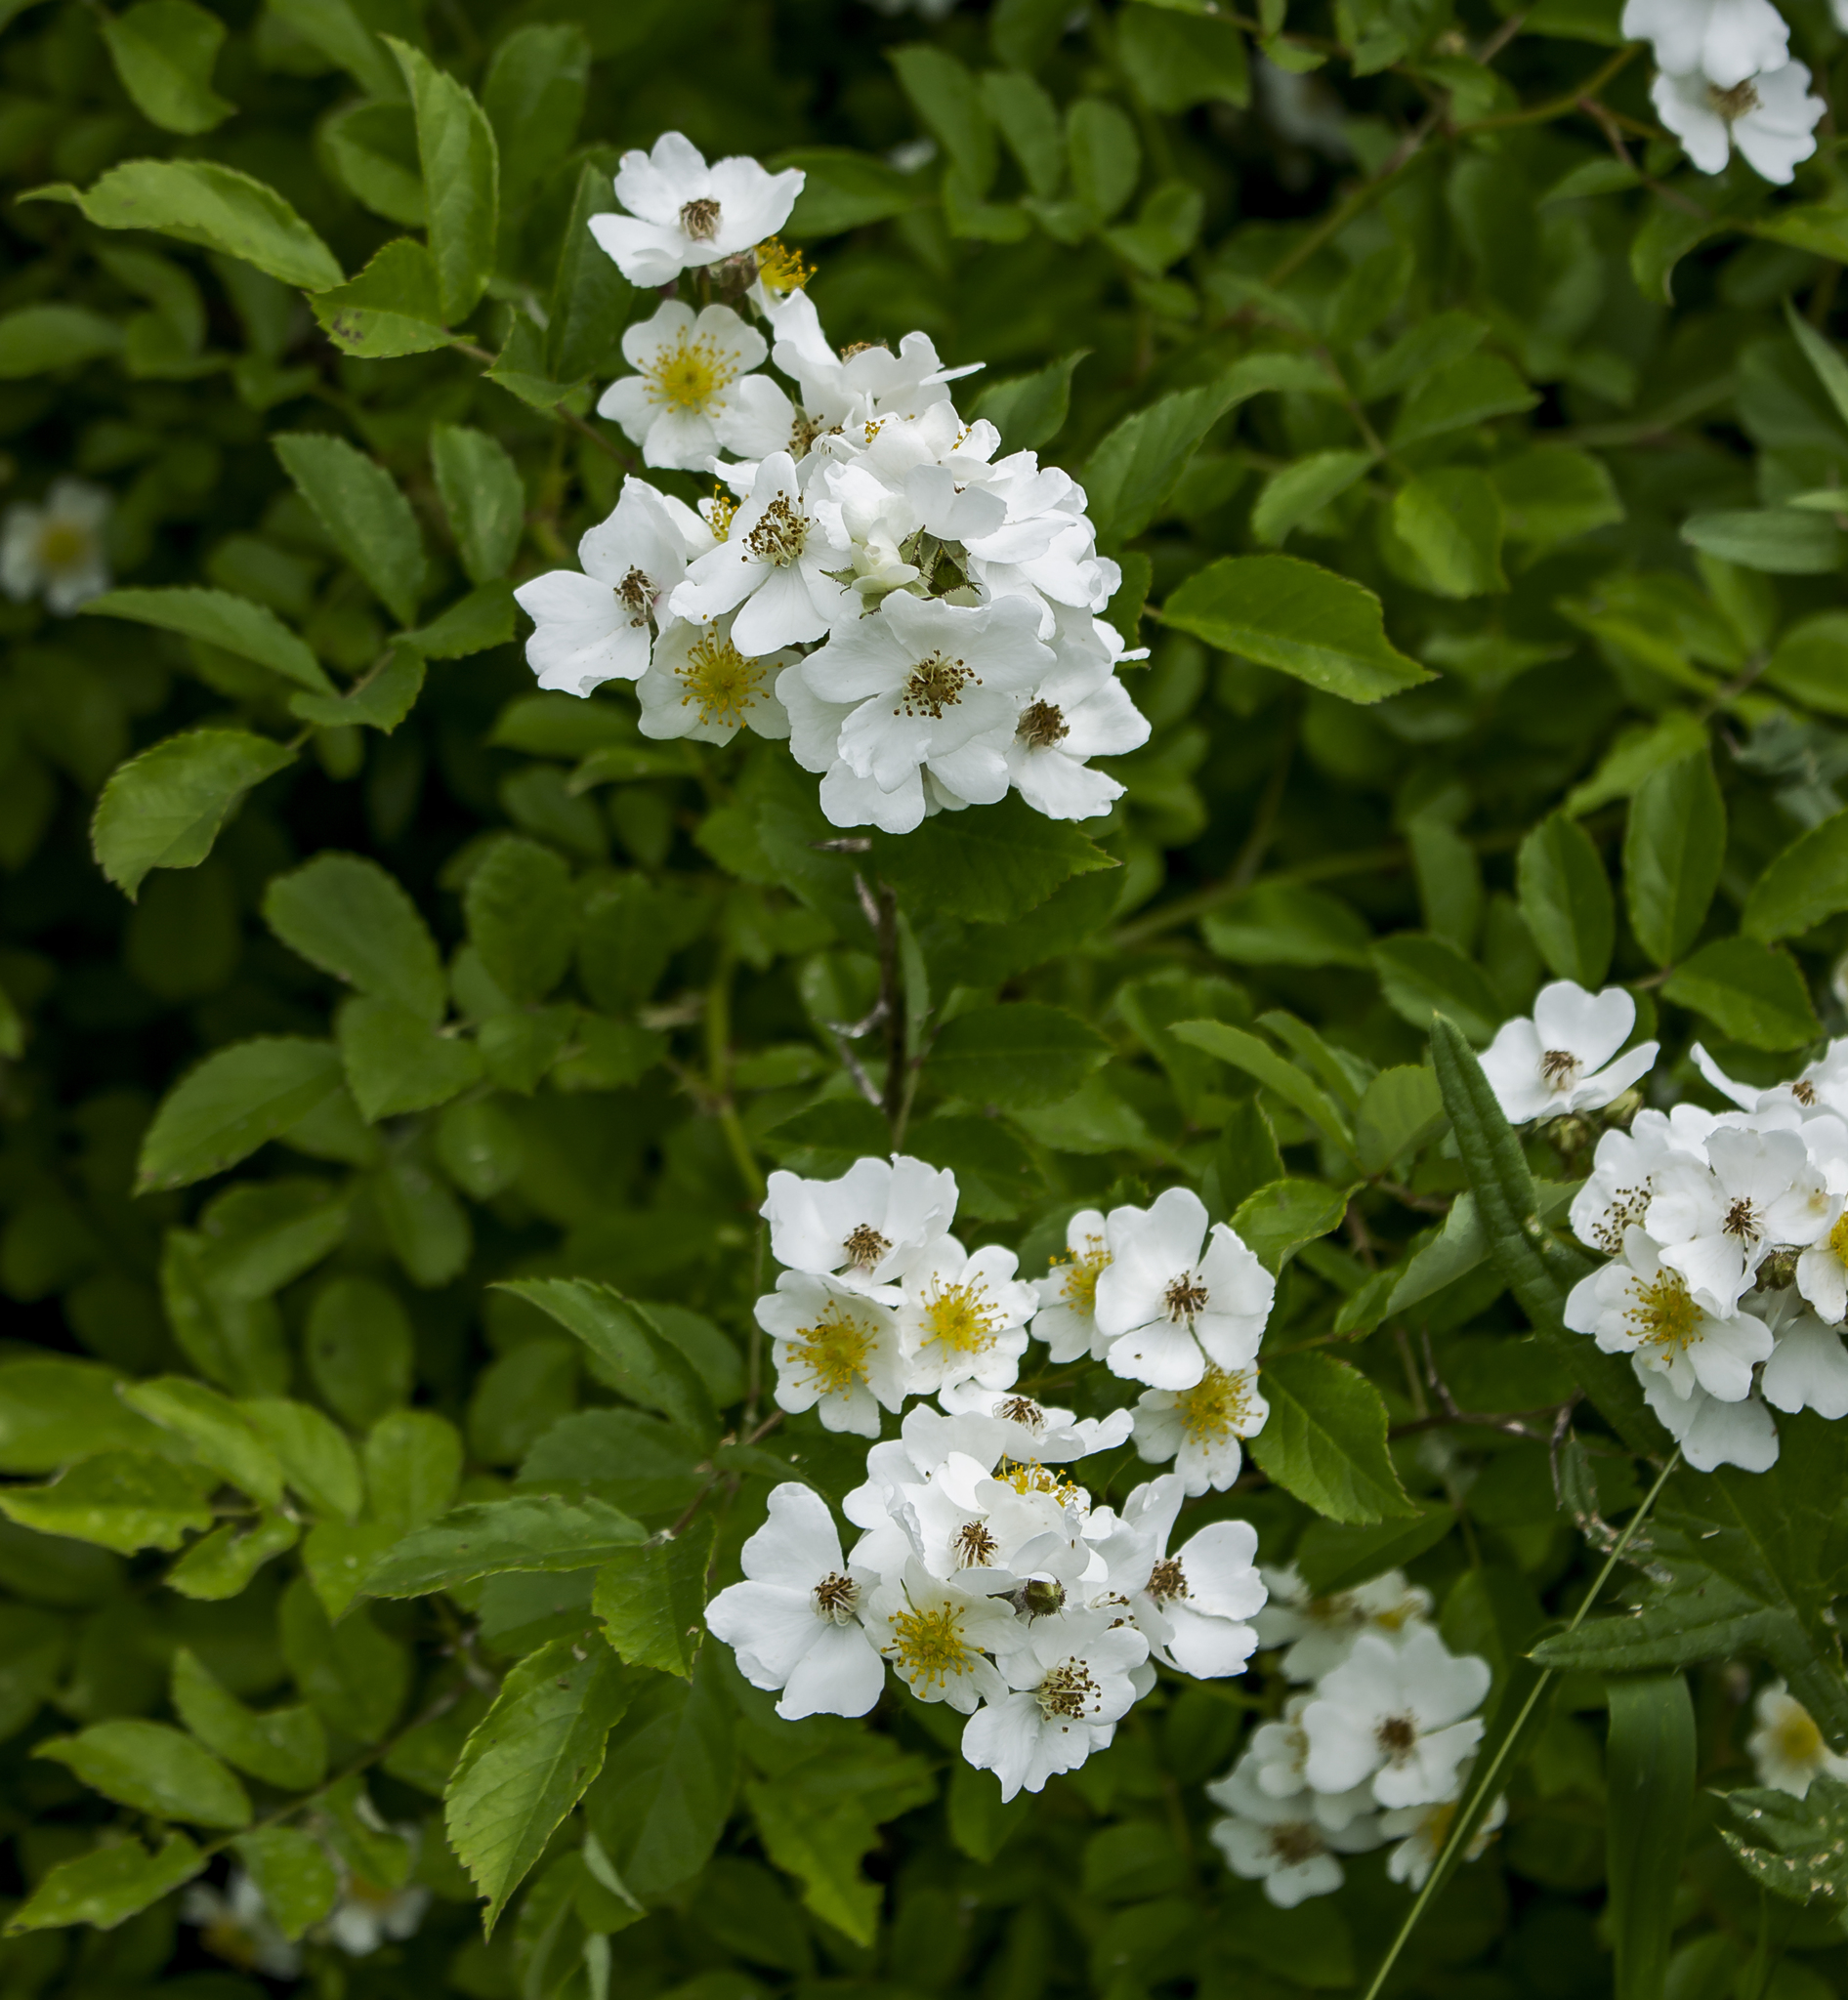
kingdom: Plantae
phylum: Tracheophyta
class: Magnoliopsida
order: Rosales
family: Rosaceae
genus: Rosa
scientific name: Rosa multiflora
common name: Multiflora rose
